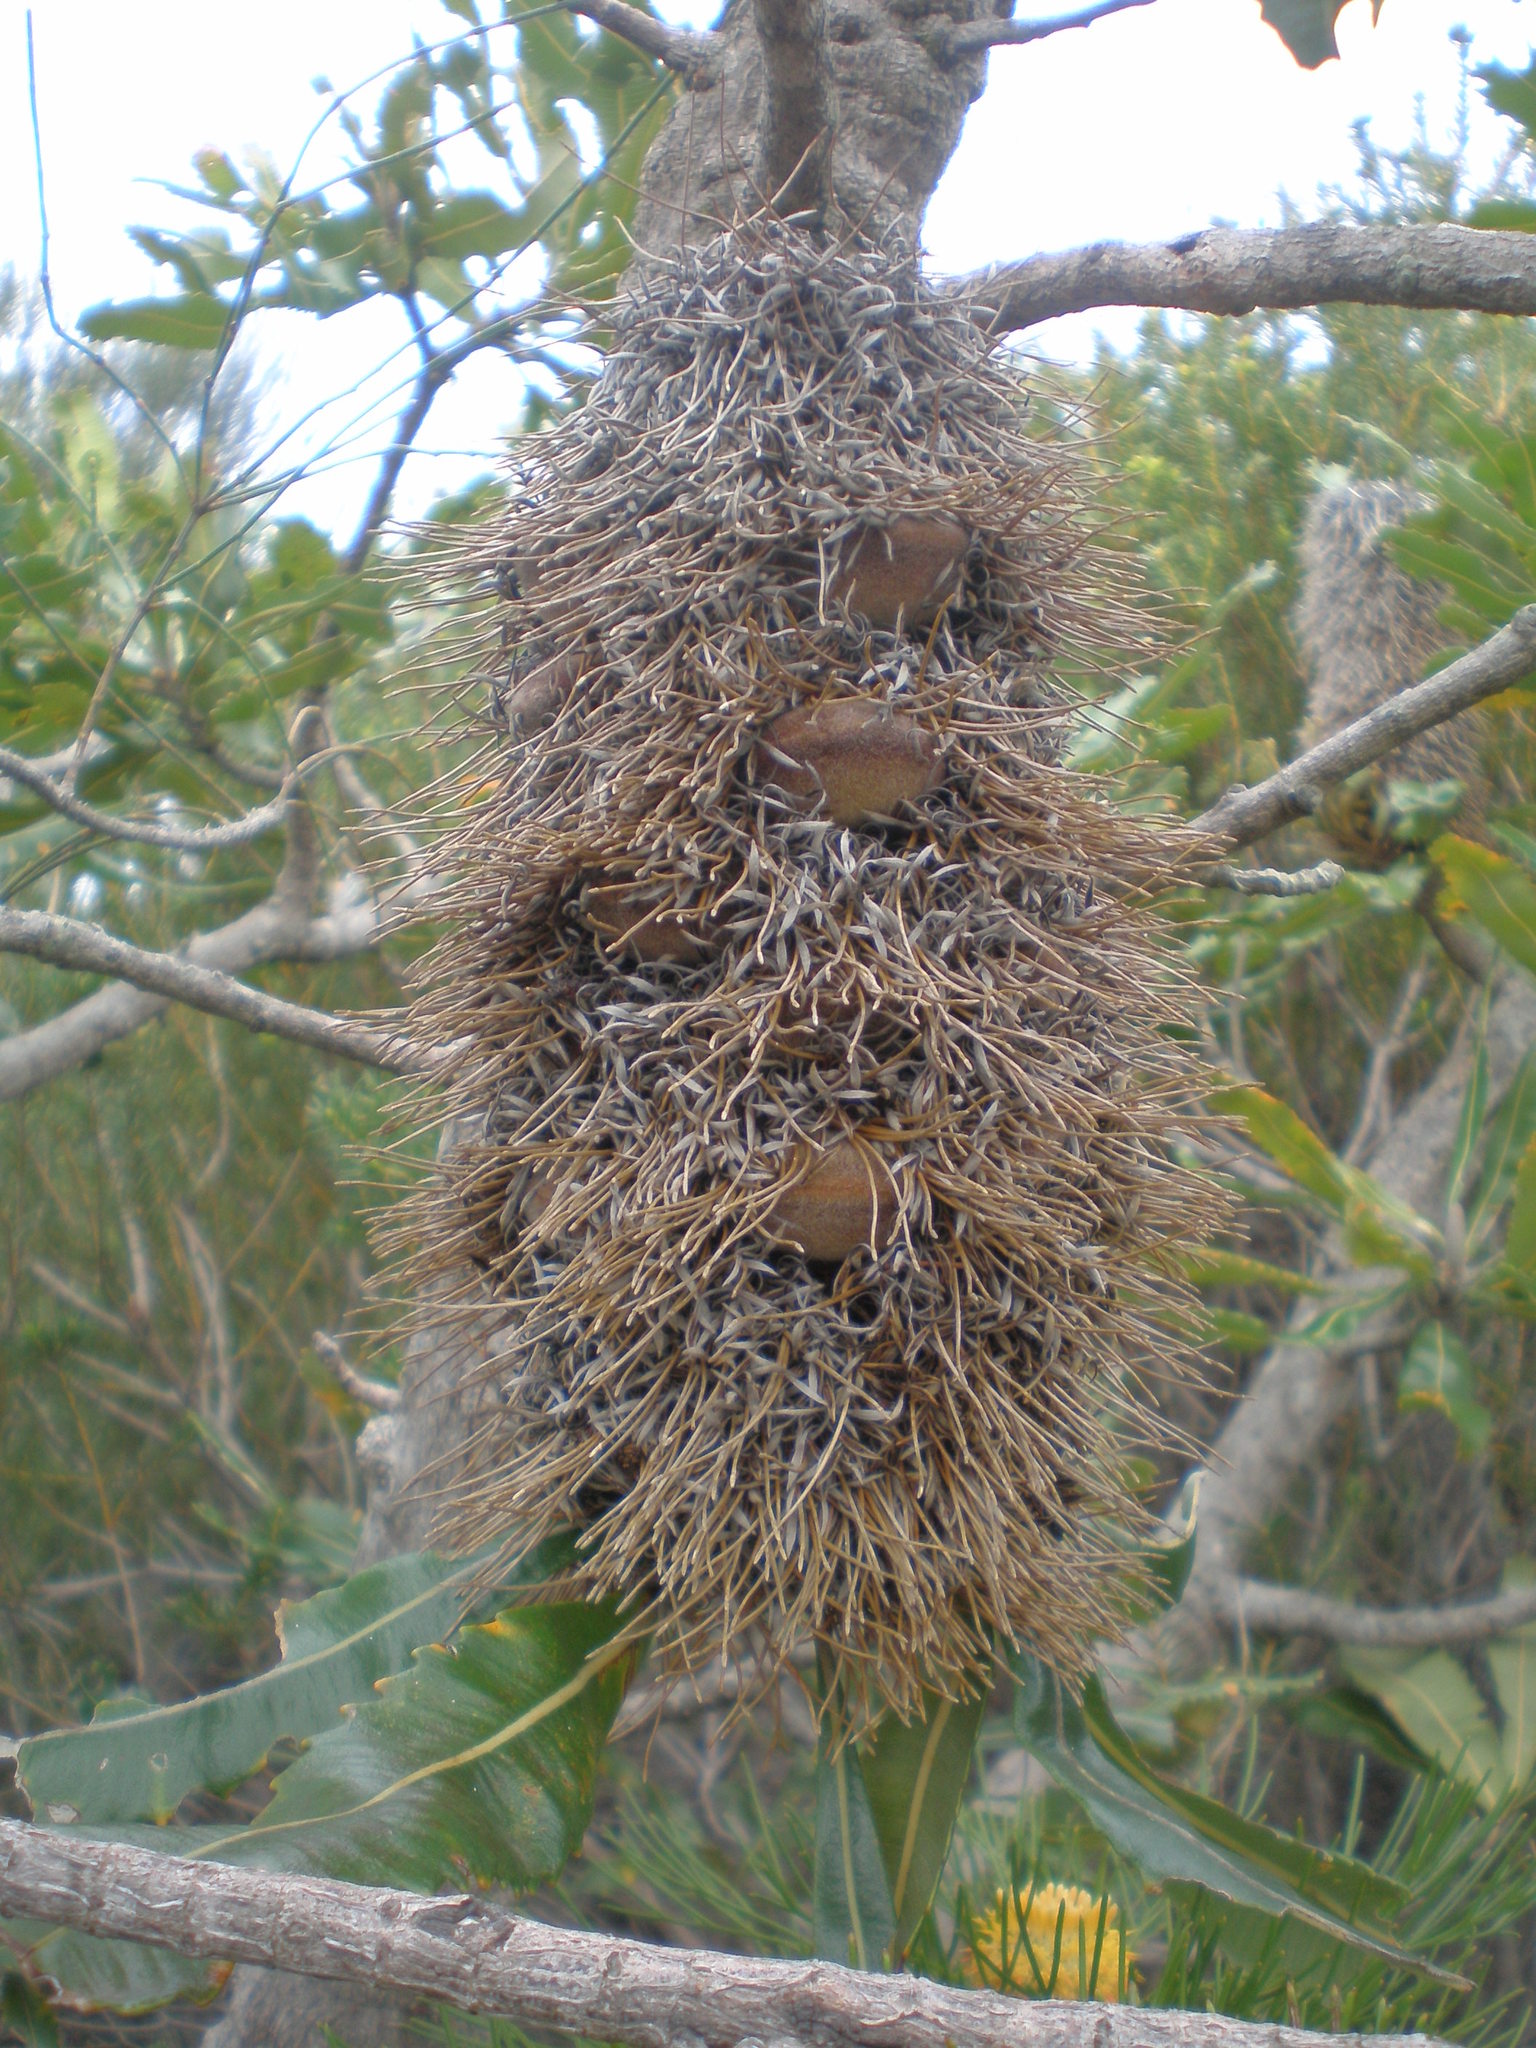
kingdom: Plantae
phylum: Tracheophyta
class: Magnoliopsida
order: Proteales
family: Proteaceae
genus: Banksia
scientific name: Banksia serrata
